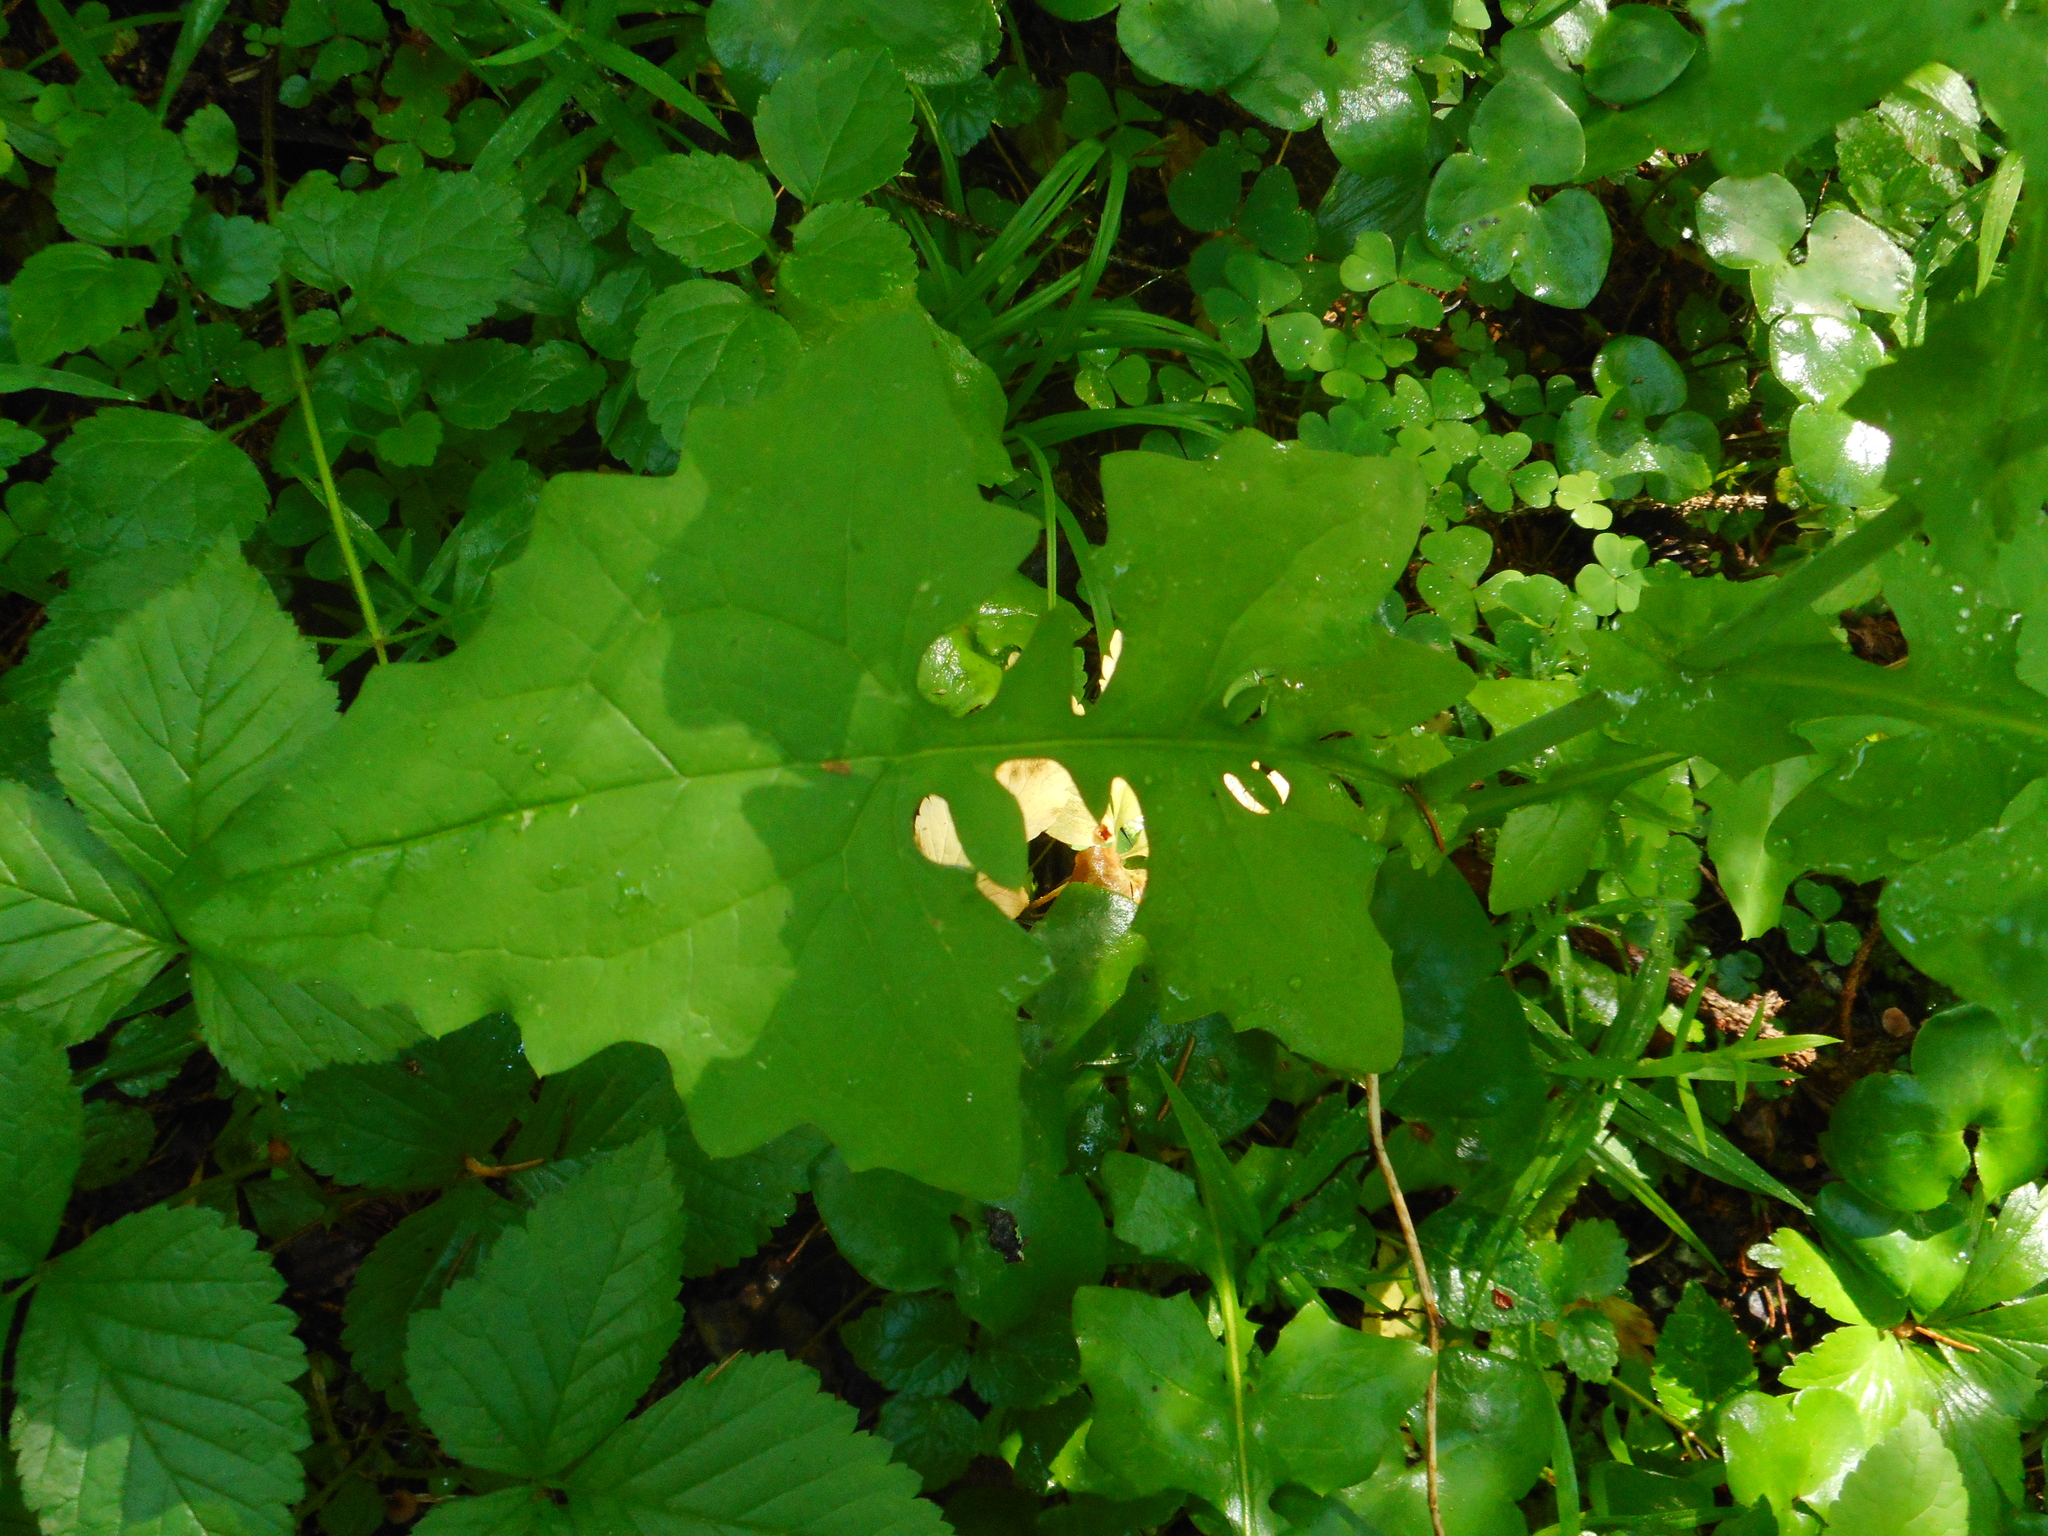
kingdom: Plantae
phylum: Tracheophyta
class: Magnoliopsida
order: Asterales
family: Asteraceae
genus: Mycelis
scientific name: Mycelis muralis
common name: Wall lettuce
